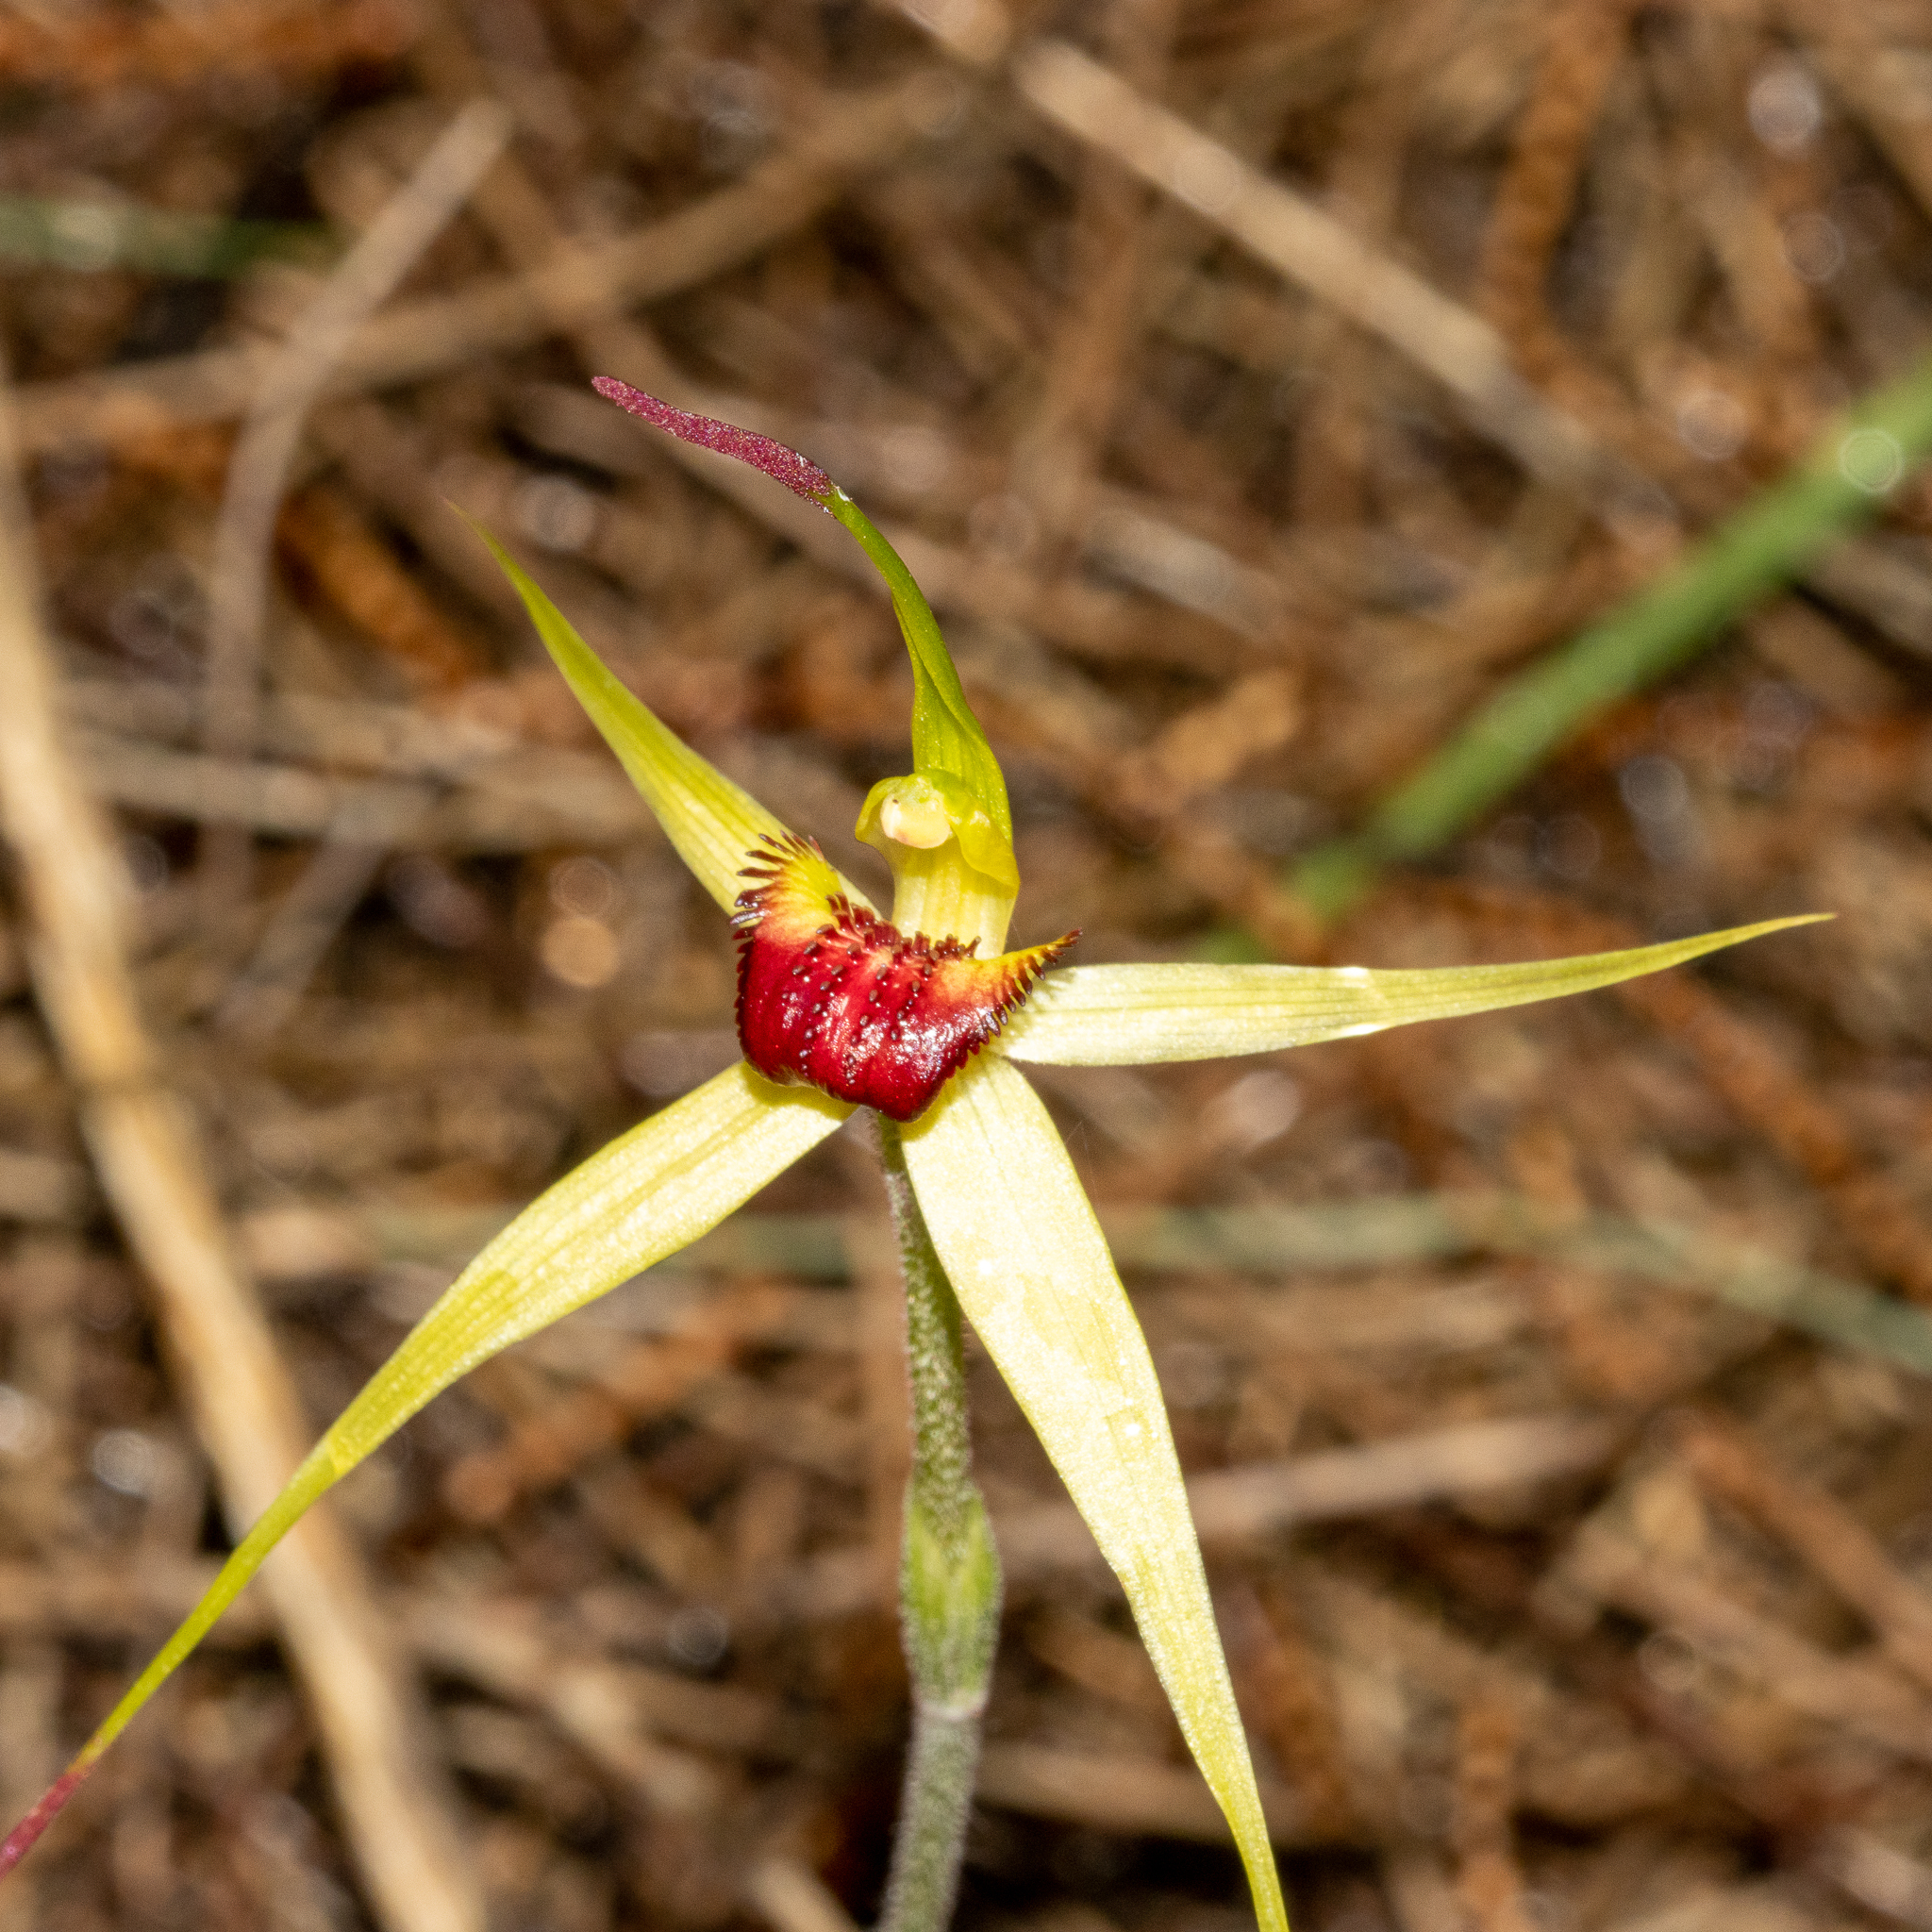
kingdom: Plantae
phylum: Tracheophyta
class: Liliopsida
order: Asparagales
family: Orchidaceae
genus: Caladenia
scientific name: Caladenia saxatilis
